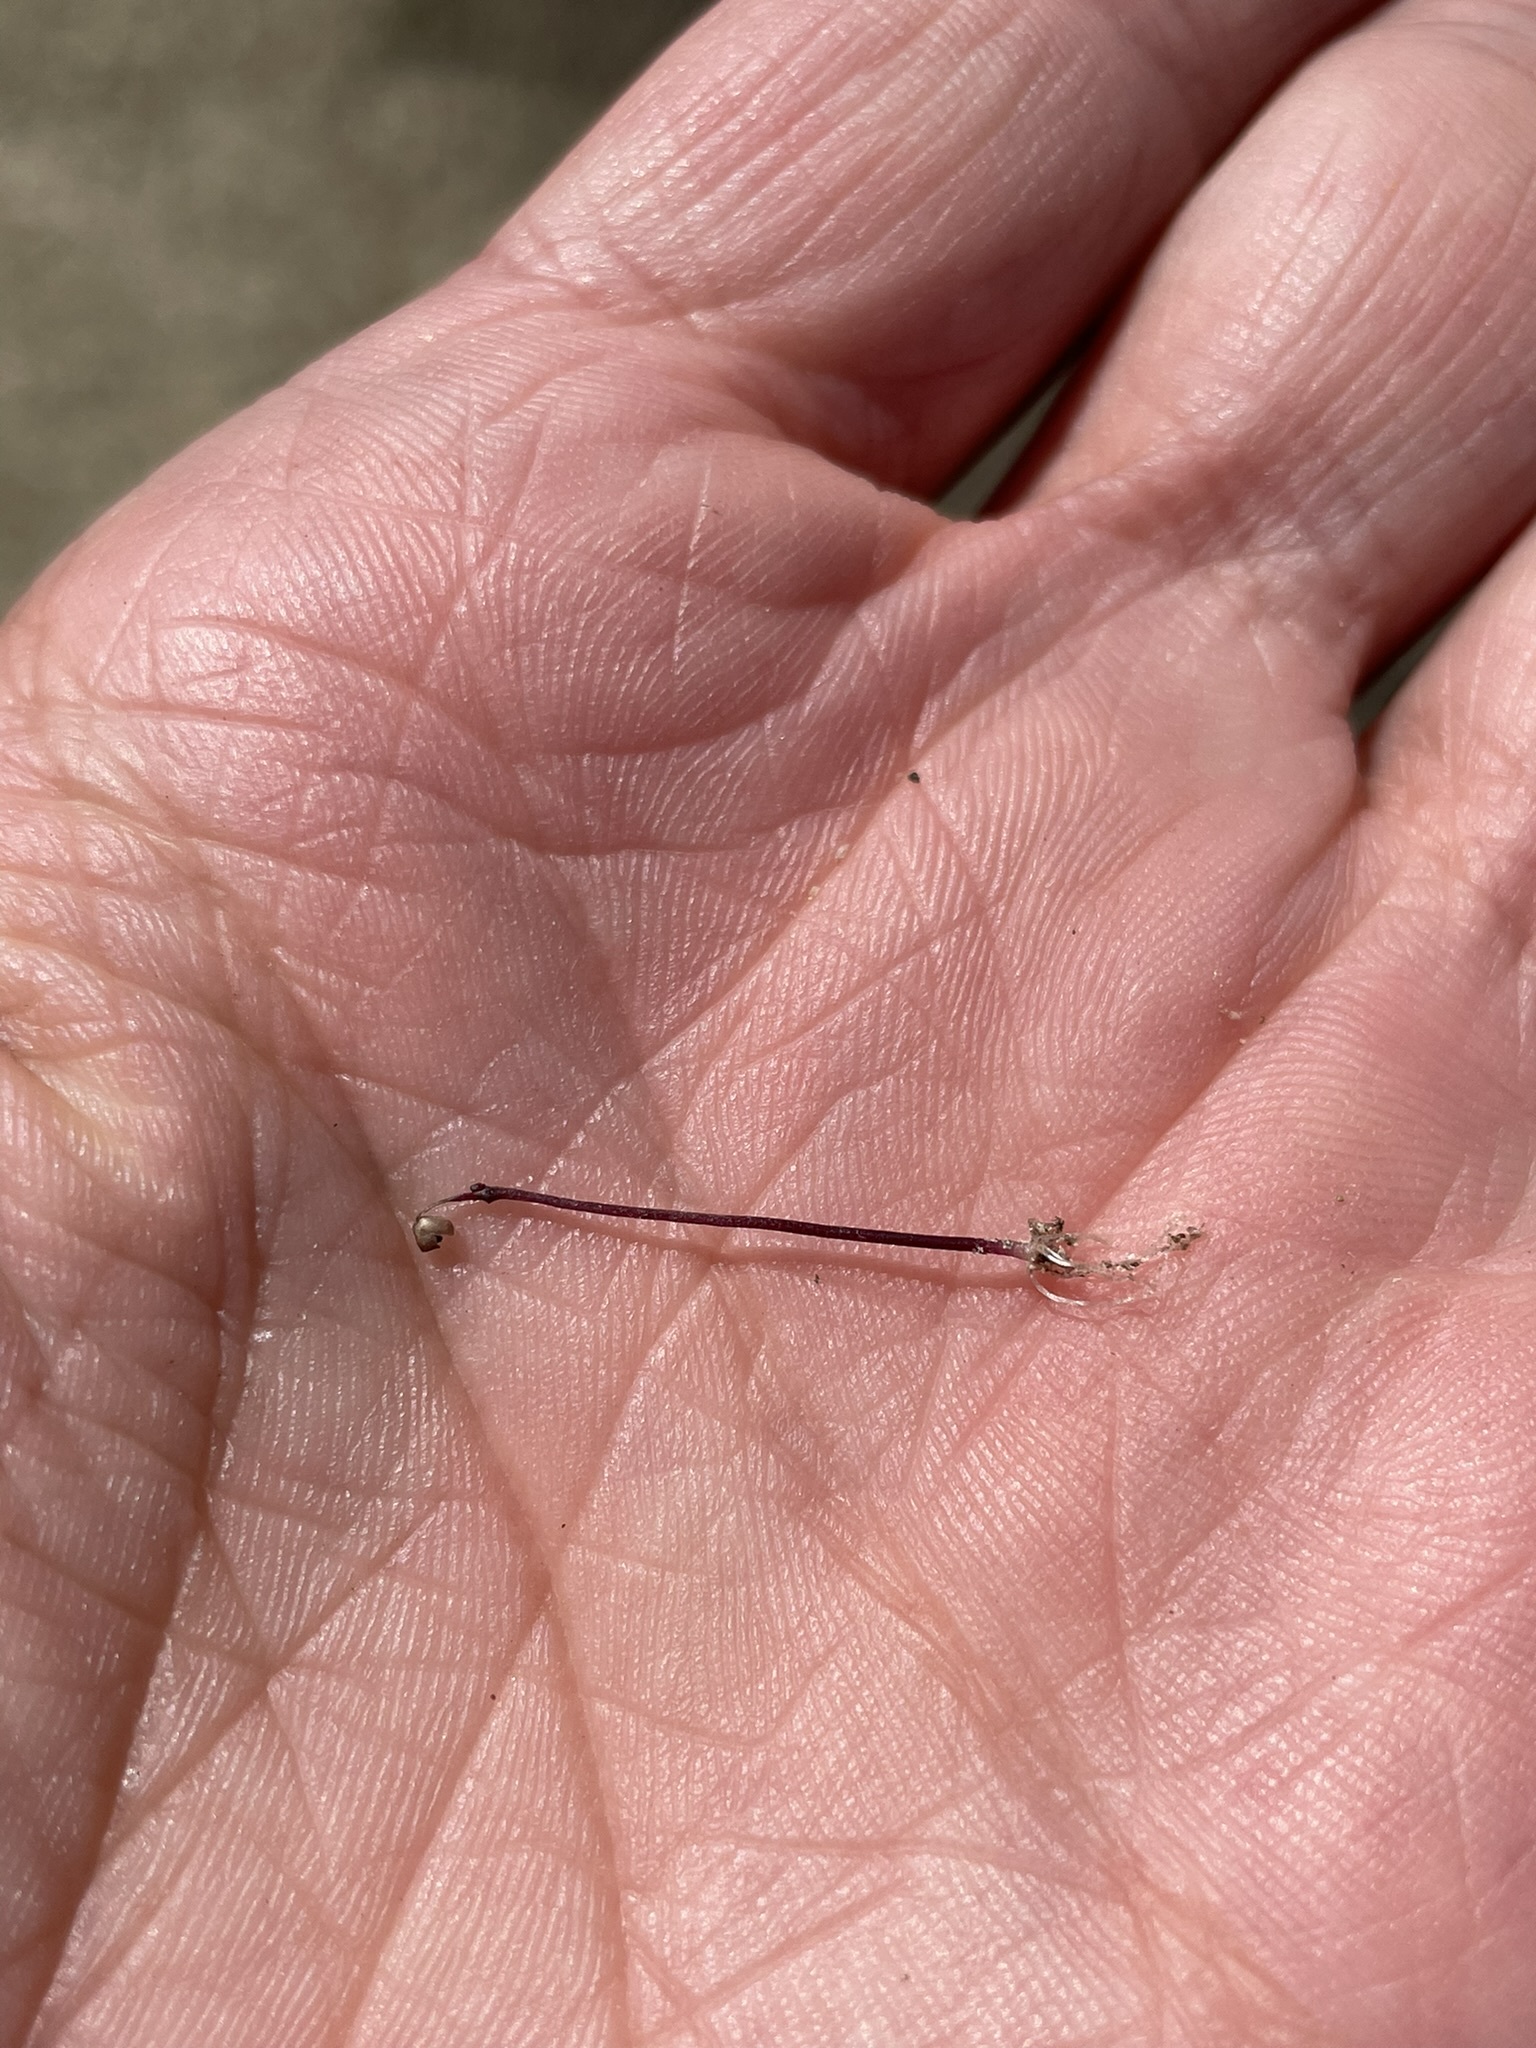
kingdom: Plantae
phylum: Tracheophyta
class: Magnoliopsida
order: Lamiales
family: Lentibulariaceae
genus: Utricularia
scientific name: Utricularia tenella
